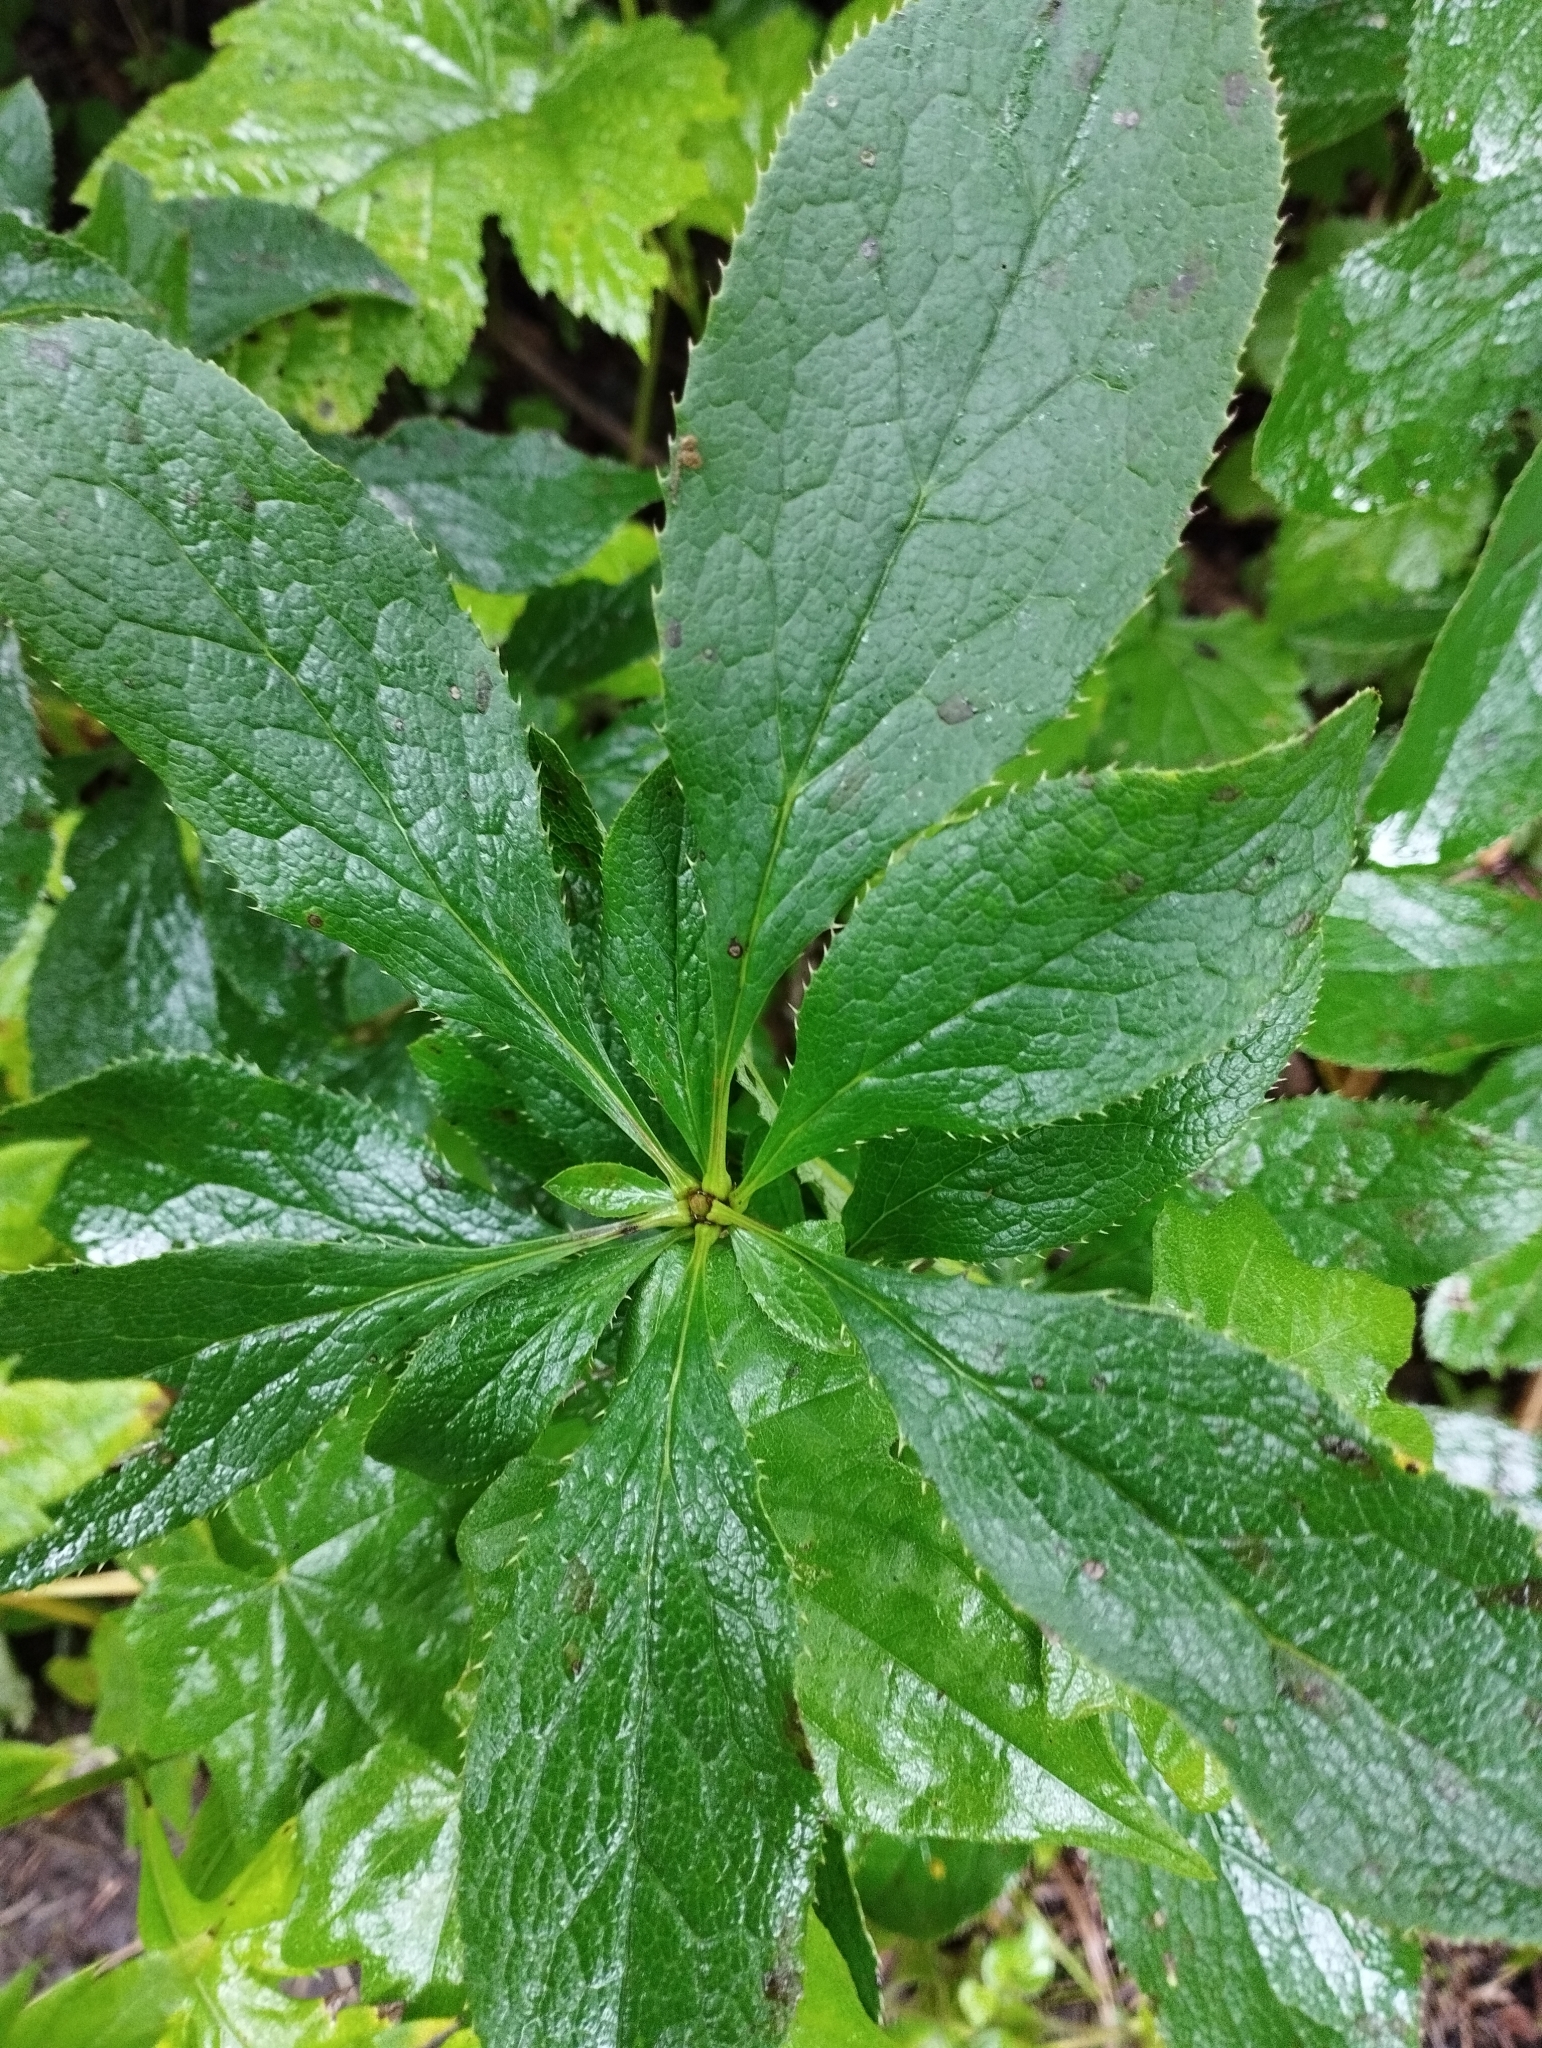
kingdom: Plantae
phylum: Tracheophyta
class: Magnoliopsida
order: Ranunculales
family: Berberidaceae
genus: Berberis
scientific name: Berberis amurensis
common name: Amur barberry
